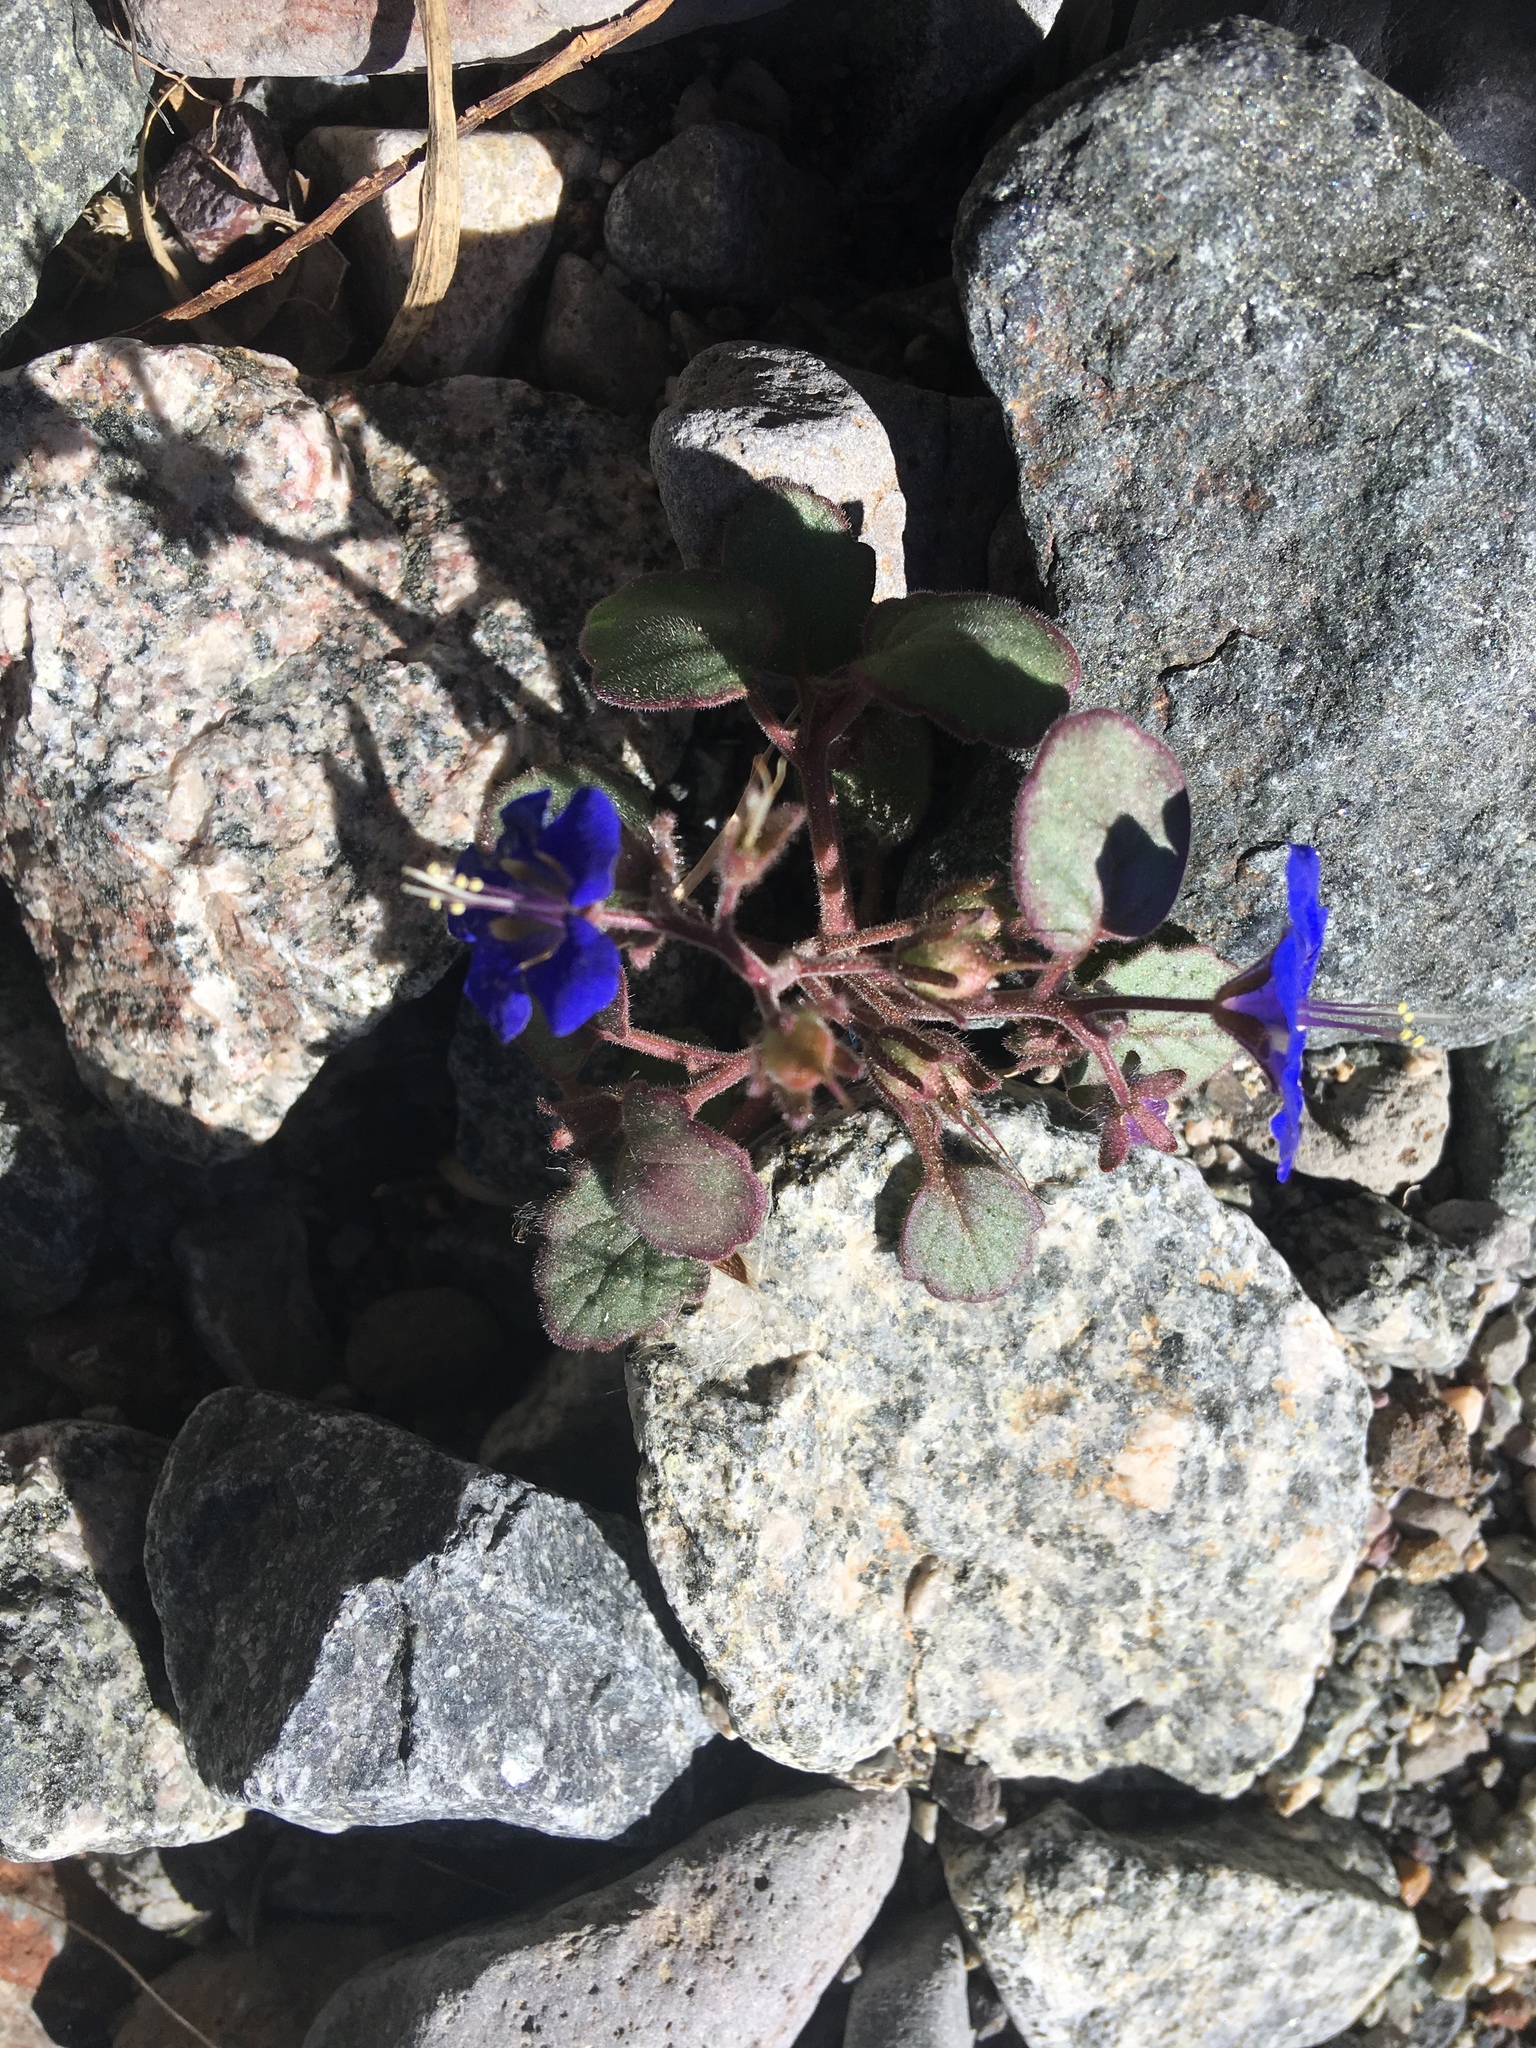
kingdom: Plantae
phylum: Tracheophyta
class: Magnoliopsida
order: Boraginales
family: Hydrophyllaceae
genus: Phacelia
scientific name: Phacelia campanularia
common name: California bluebell
